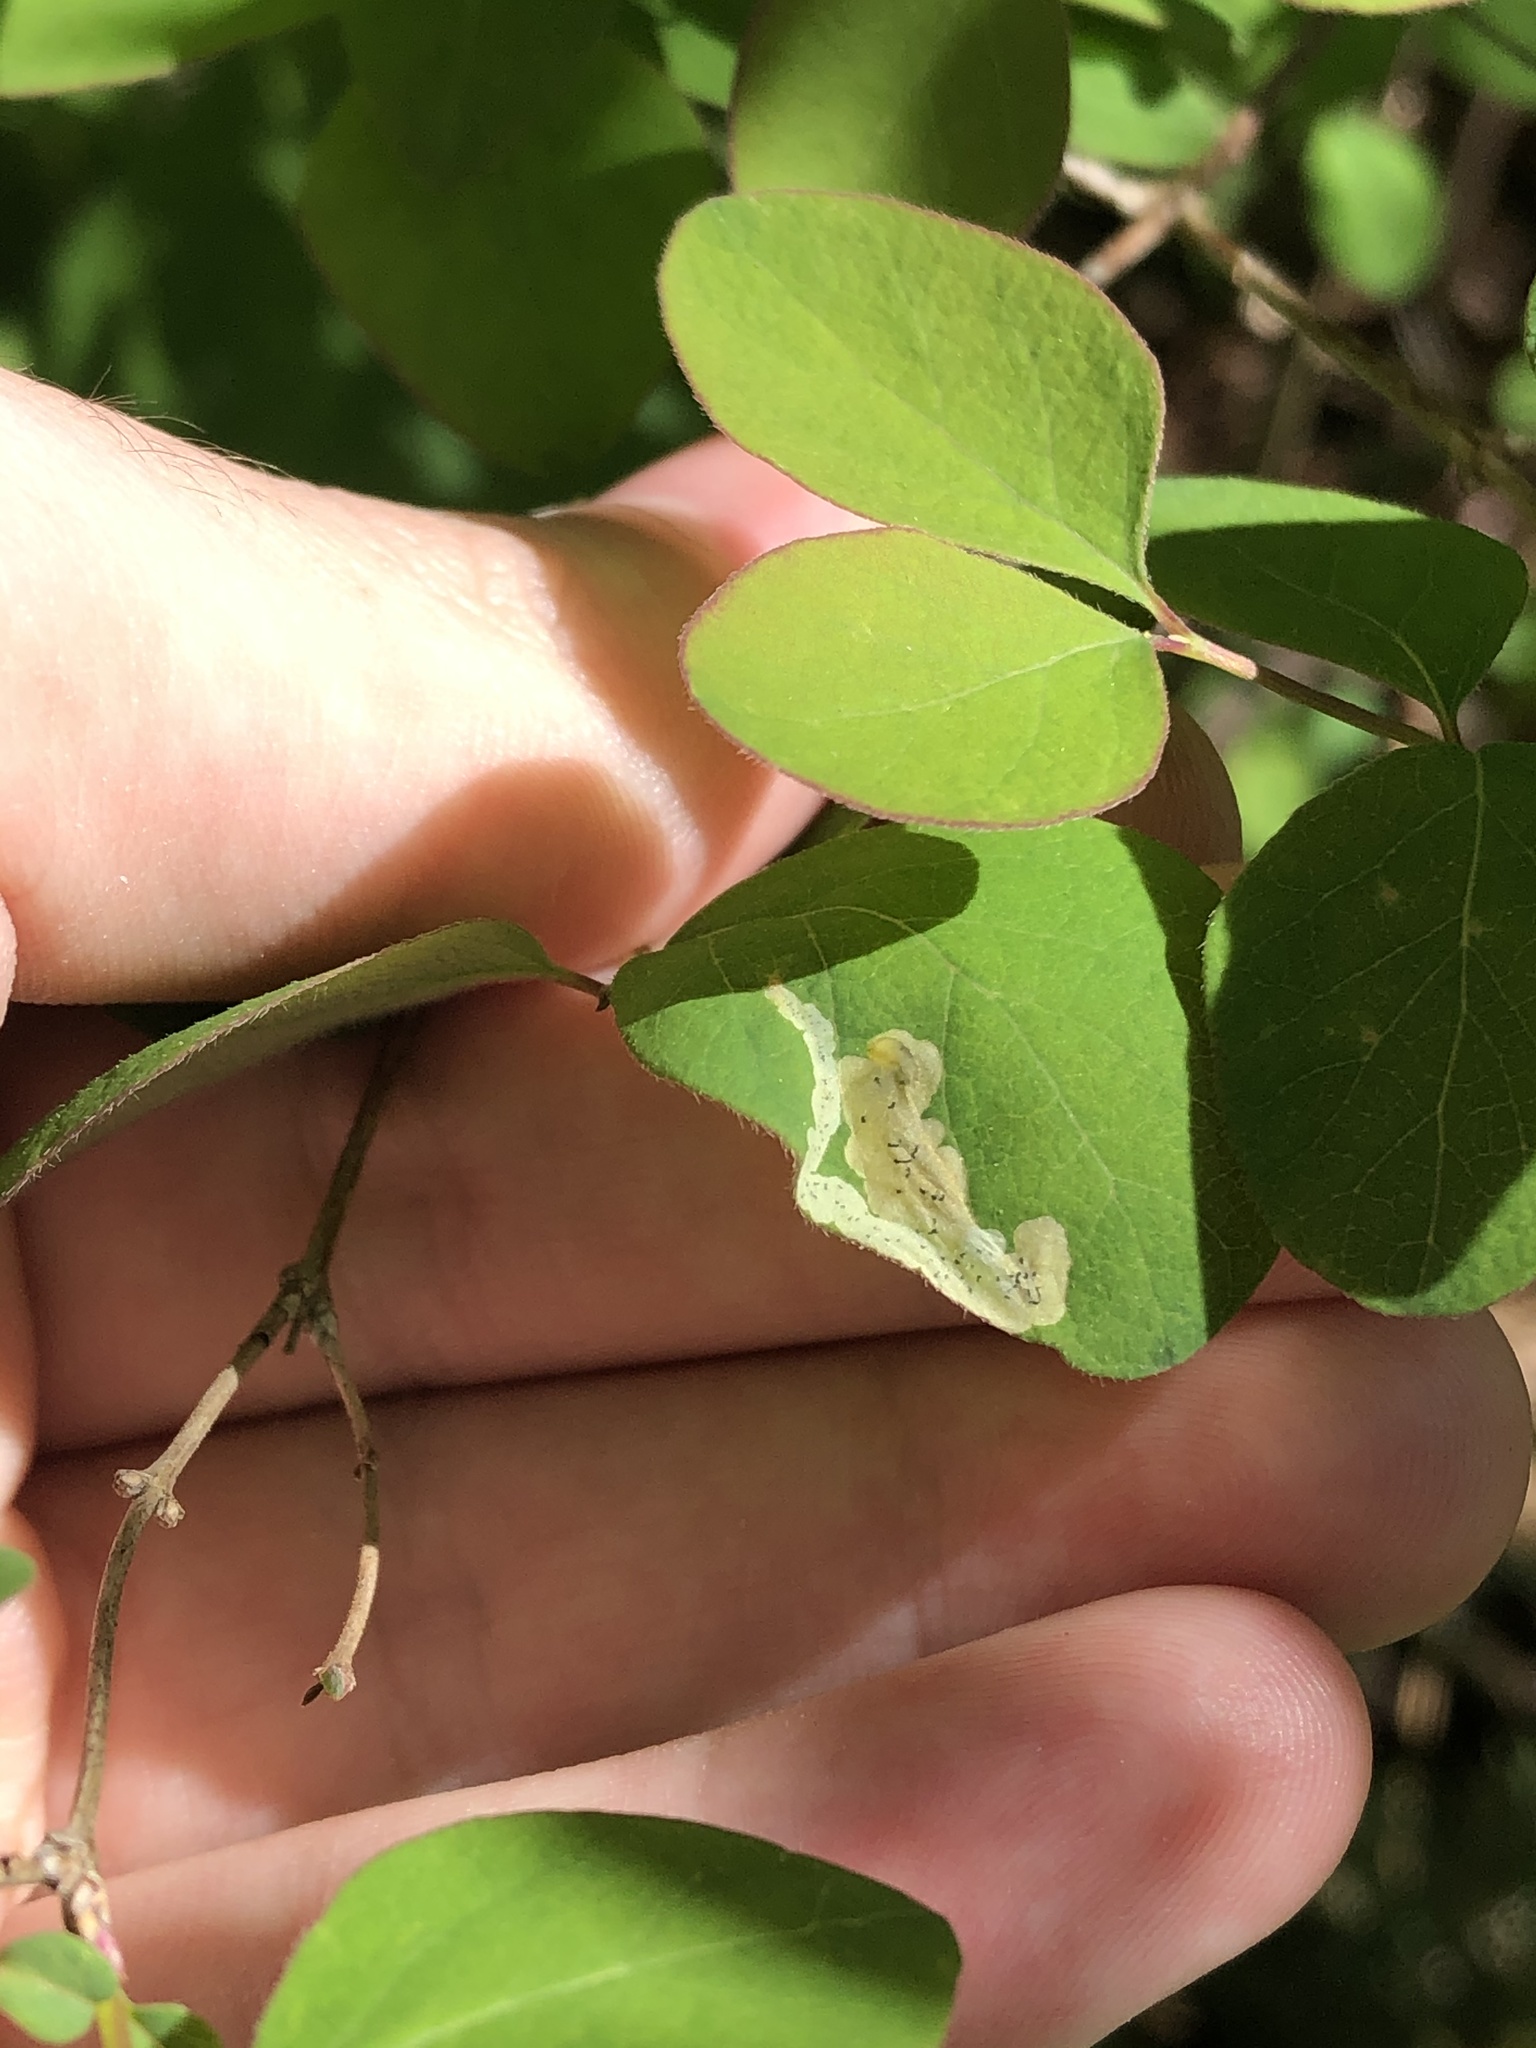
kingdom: Animalia
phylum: Arthropoda
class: Insecta
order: Diptera
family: Agromyzidae
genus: Aulagromyza
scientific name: Aulagromyza cornigera
